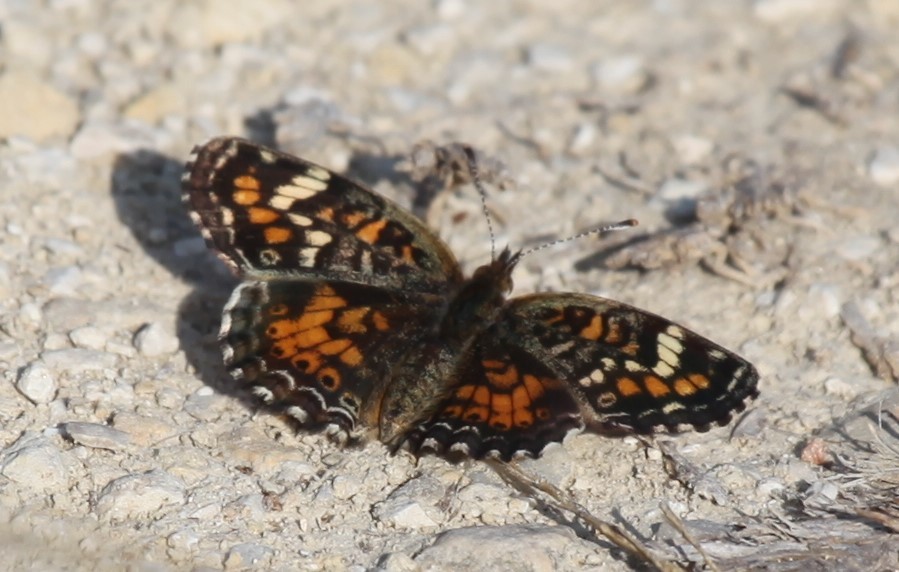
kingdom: Animalia
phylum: Arthropoda
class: Insecta
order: Lepidoptera
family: Nymphalidae
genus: Phyciodes
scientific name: Phyciodes phaon
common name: Phaon crescent
